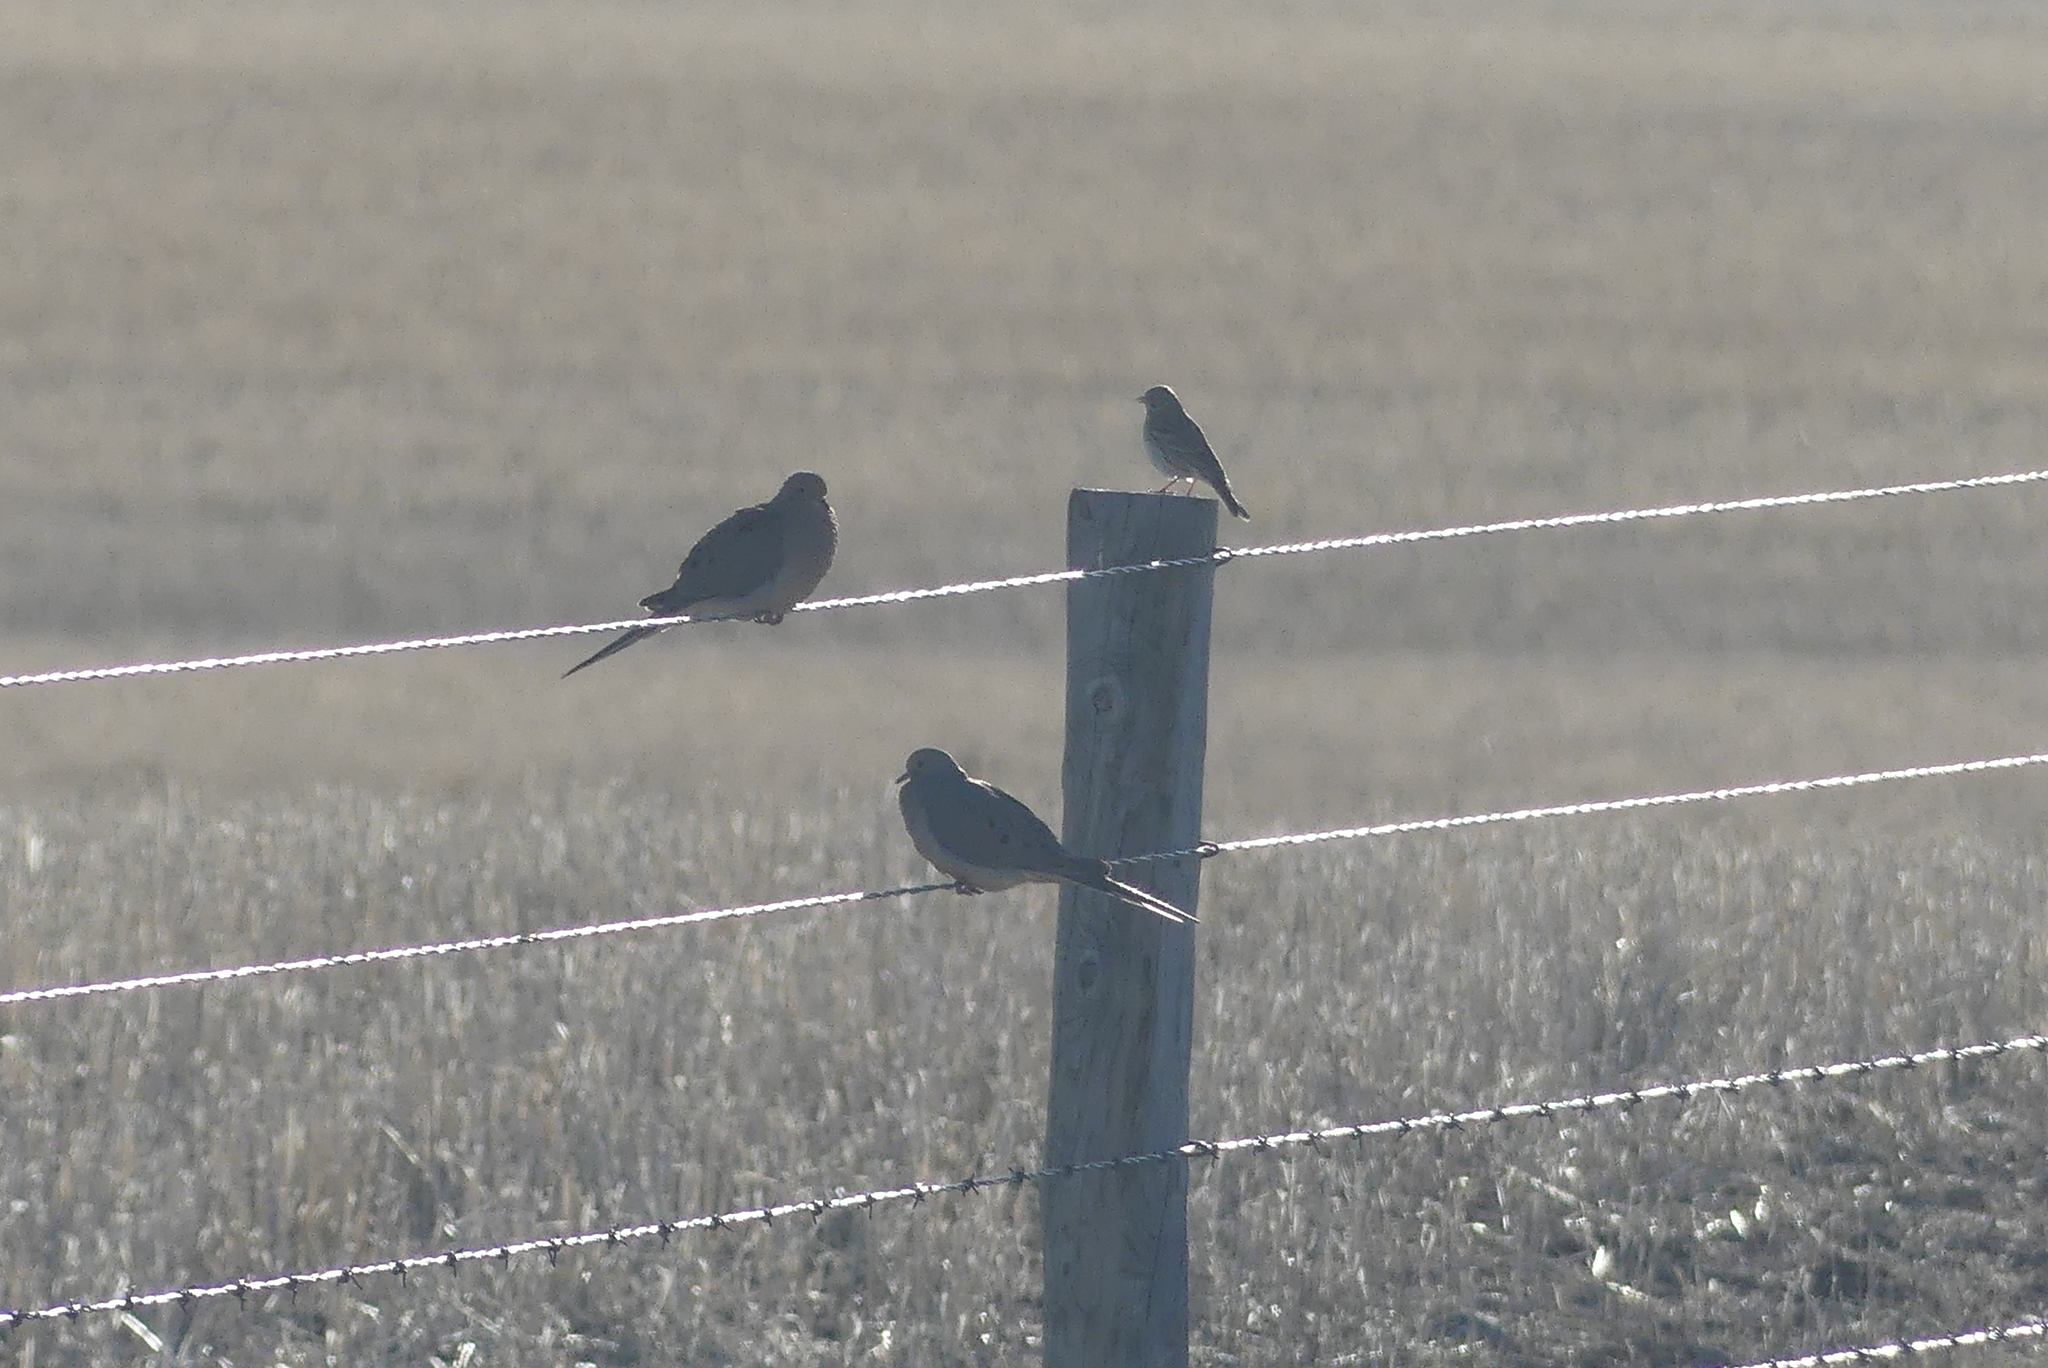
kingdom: Animalia
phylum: Chordata
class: Aves
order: Columbiformes
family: Columbidae
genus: Zenaida
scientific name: Zenaida macroura
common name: Mourning dove
